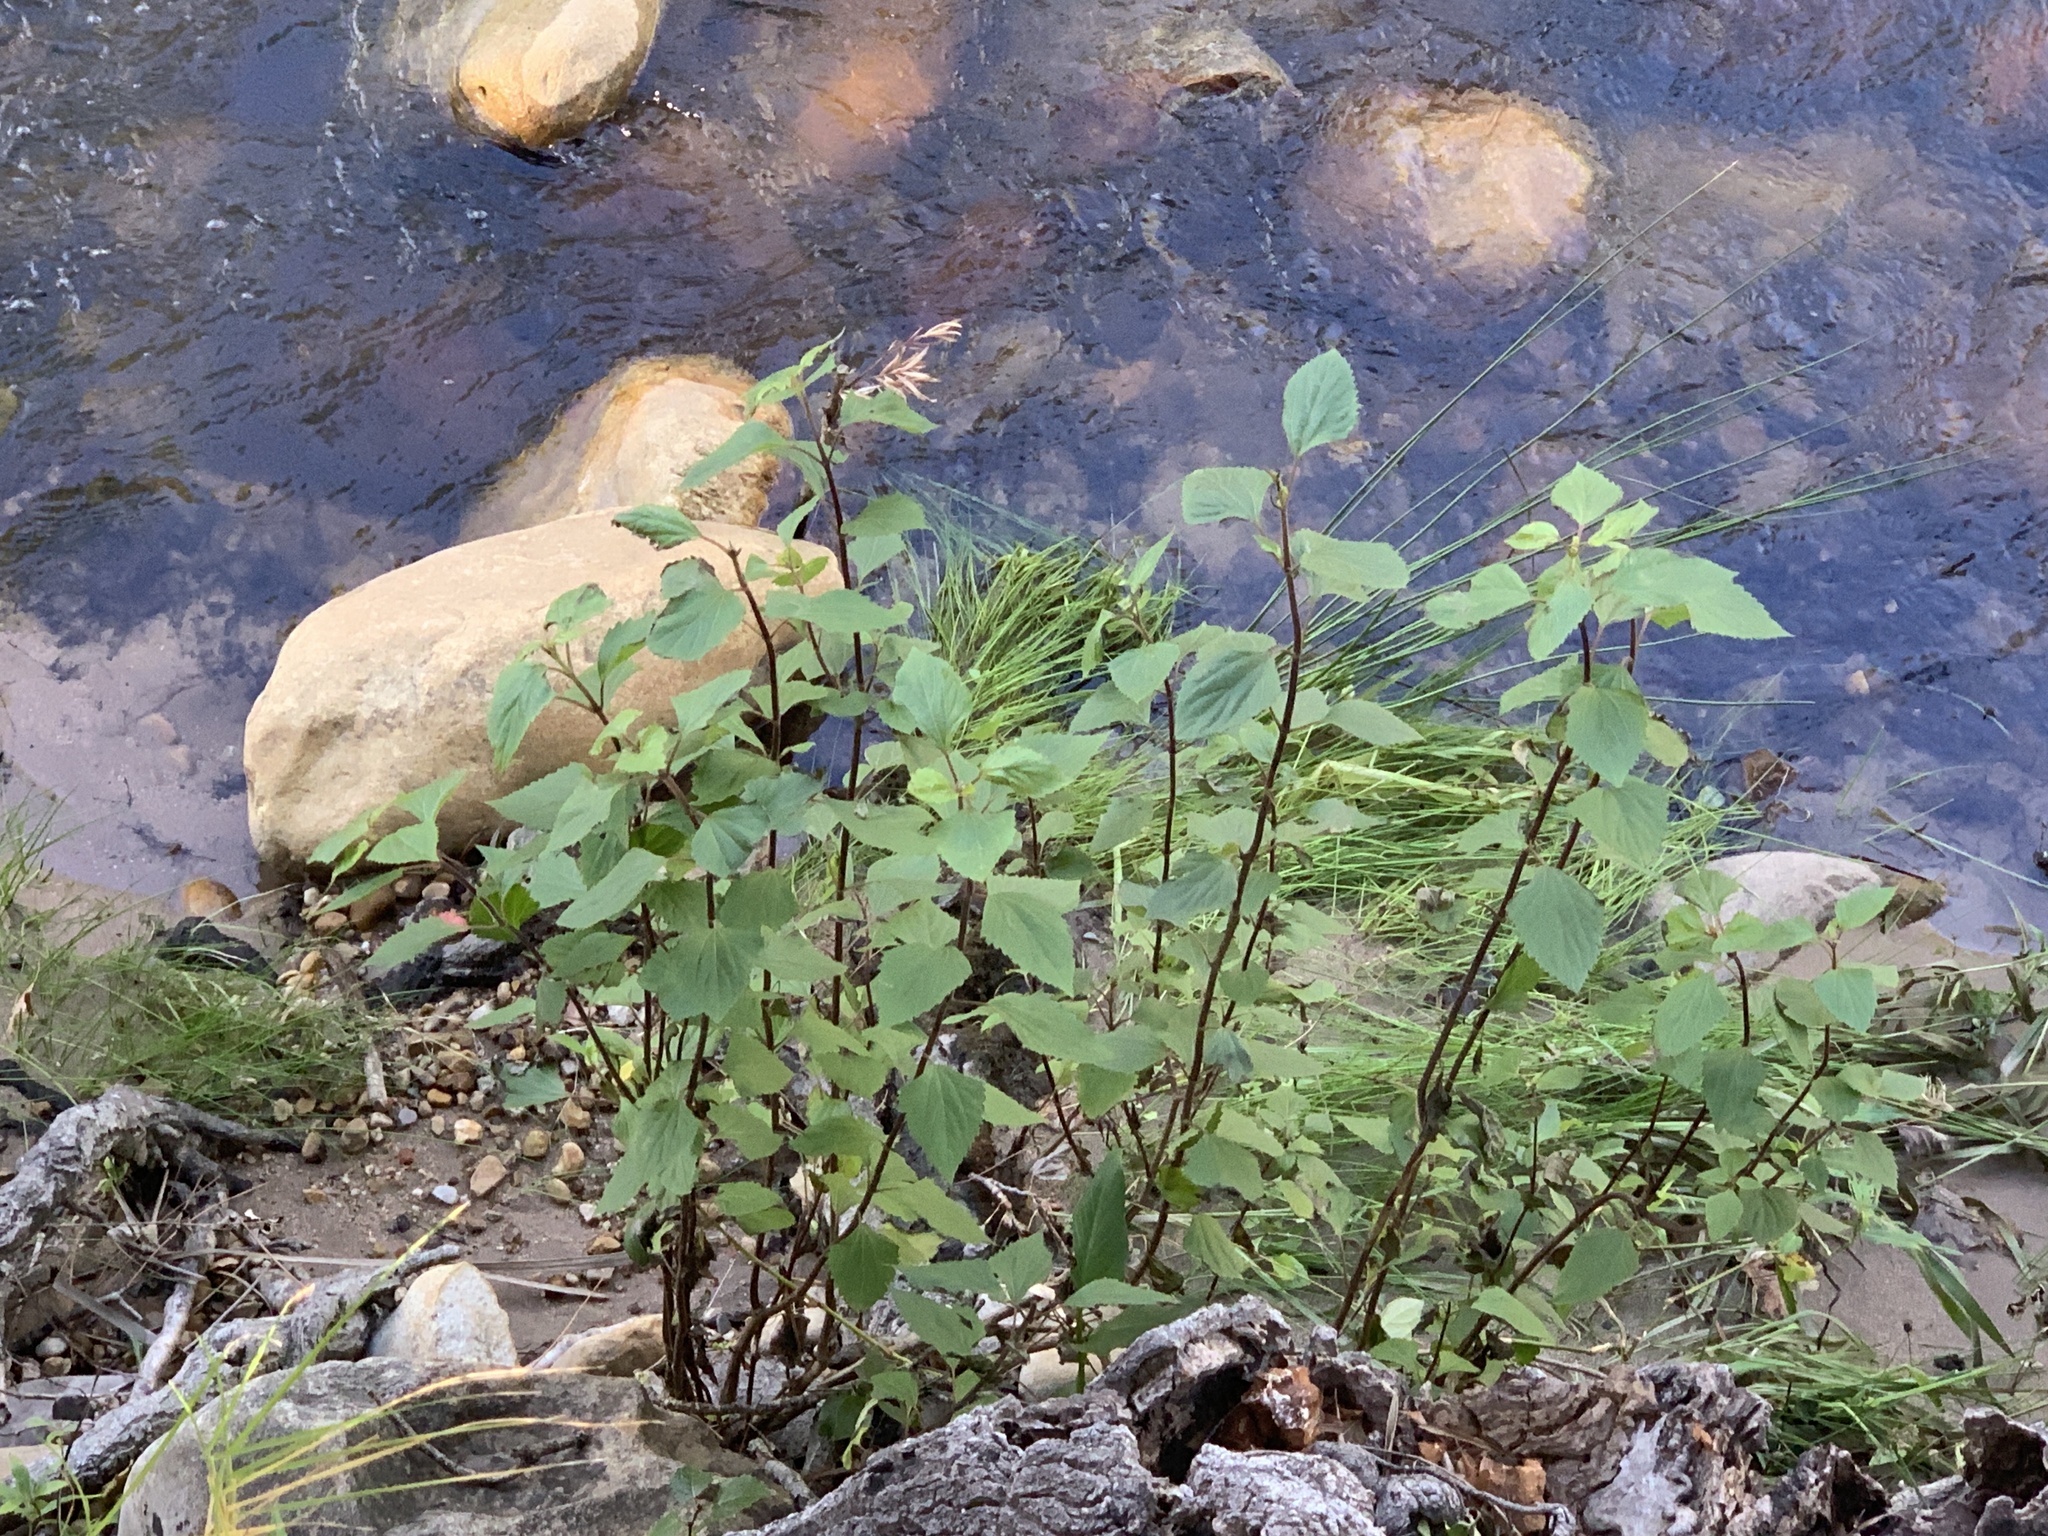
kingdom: Plantae
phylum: Tracheophyta
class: Magnoliopsida
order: Asterales
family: Asteraceae
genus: Ageratina
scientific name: Ageratina adenophora
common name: Sticky snakeroot
